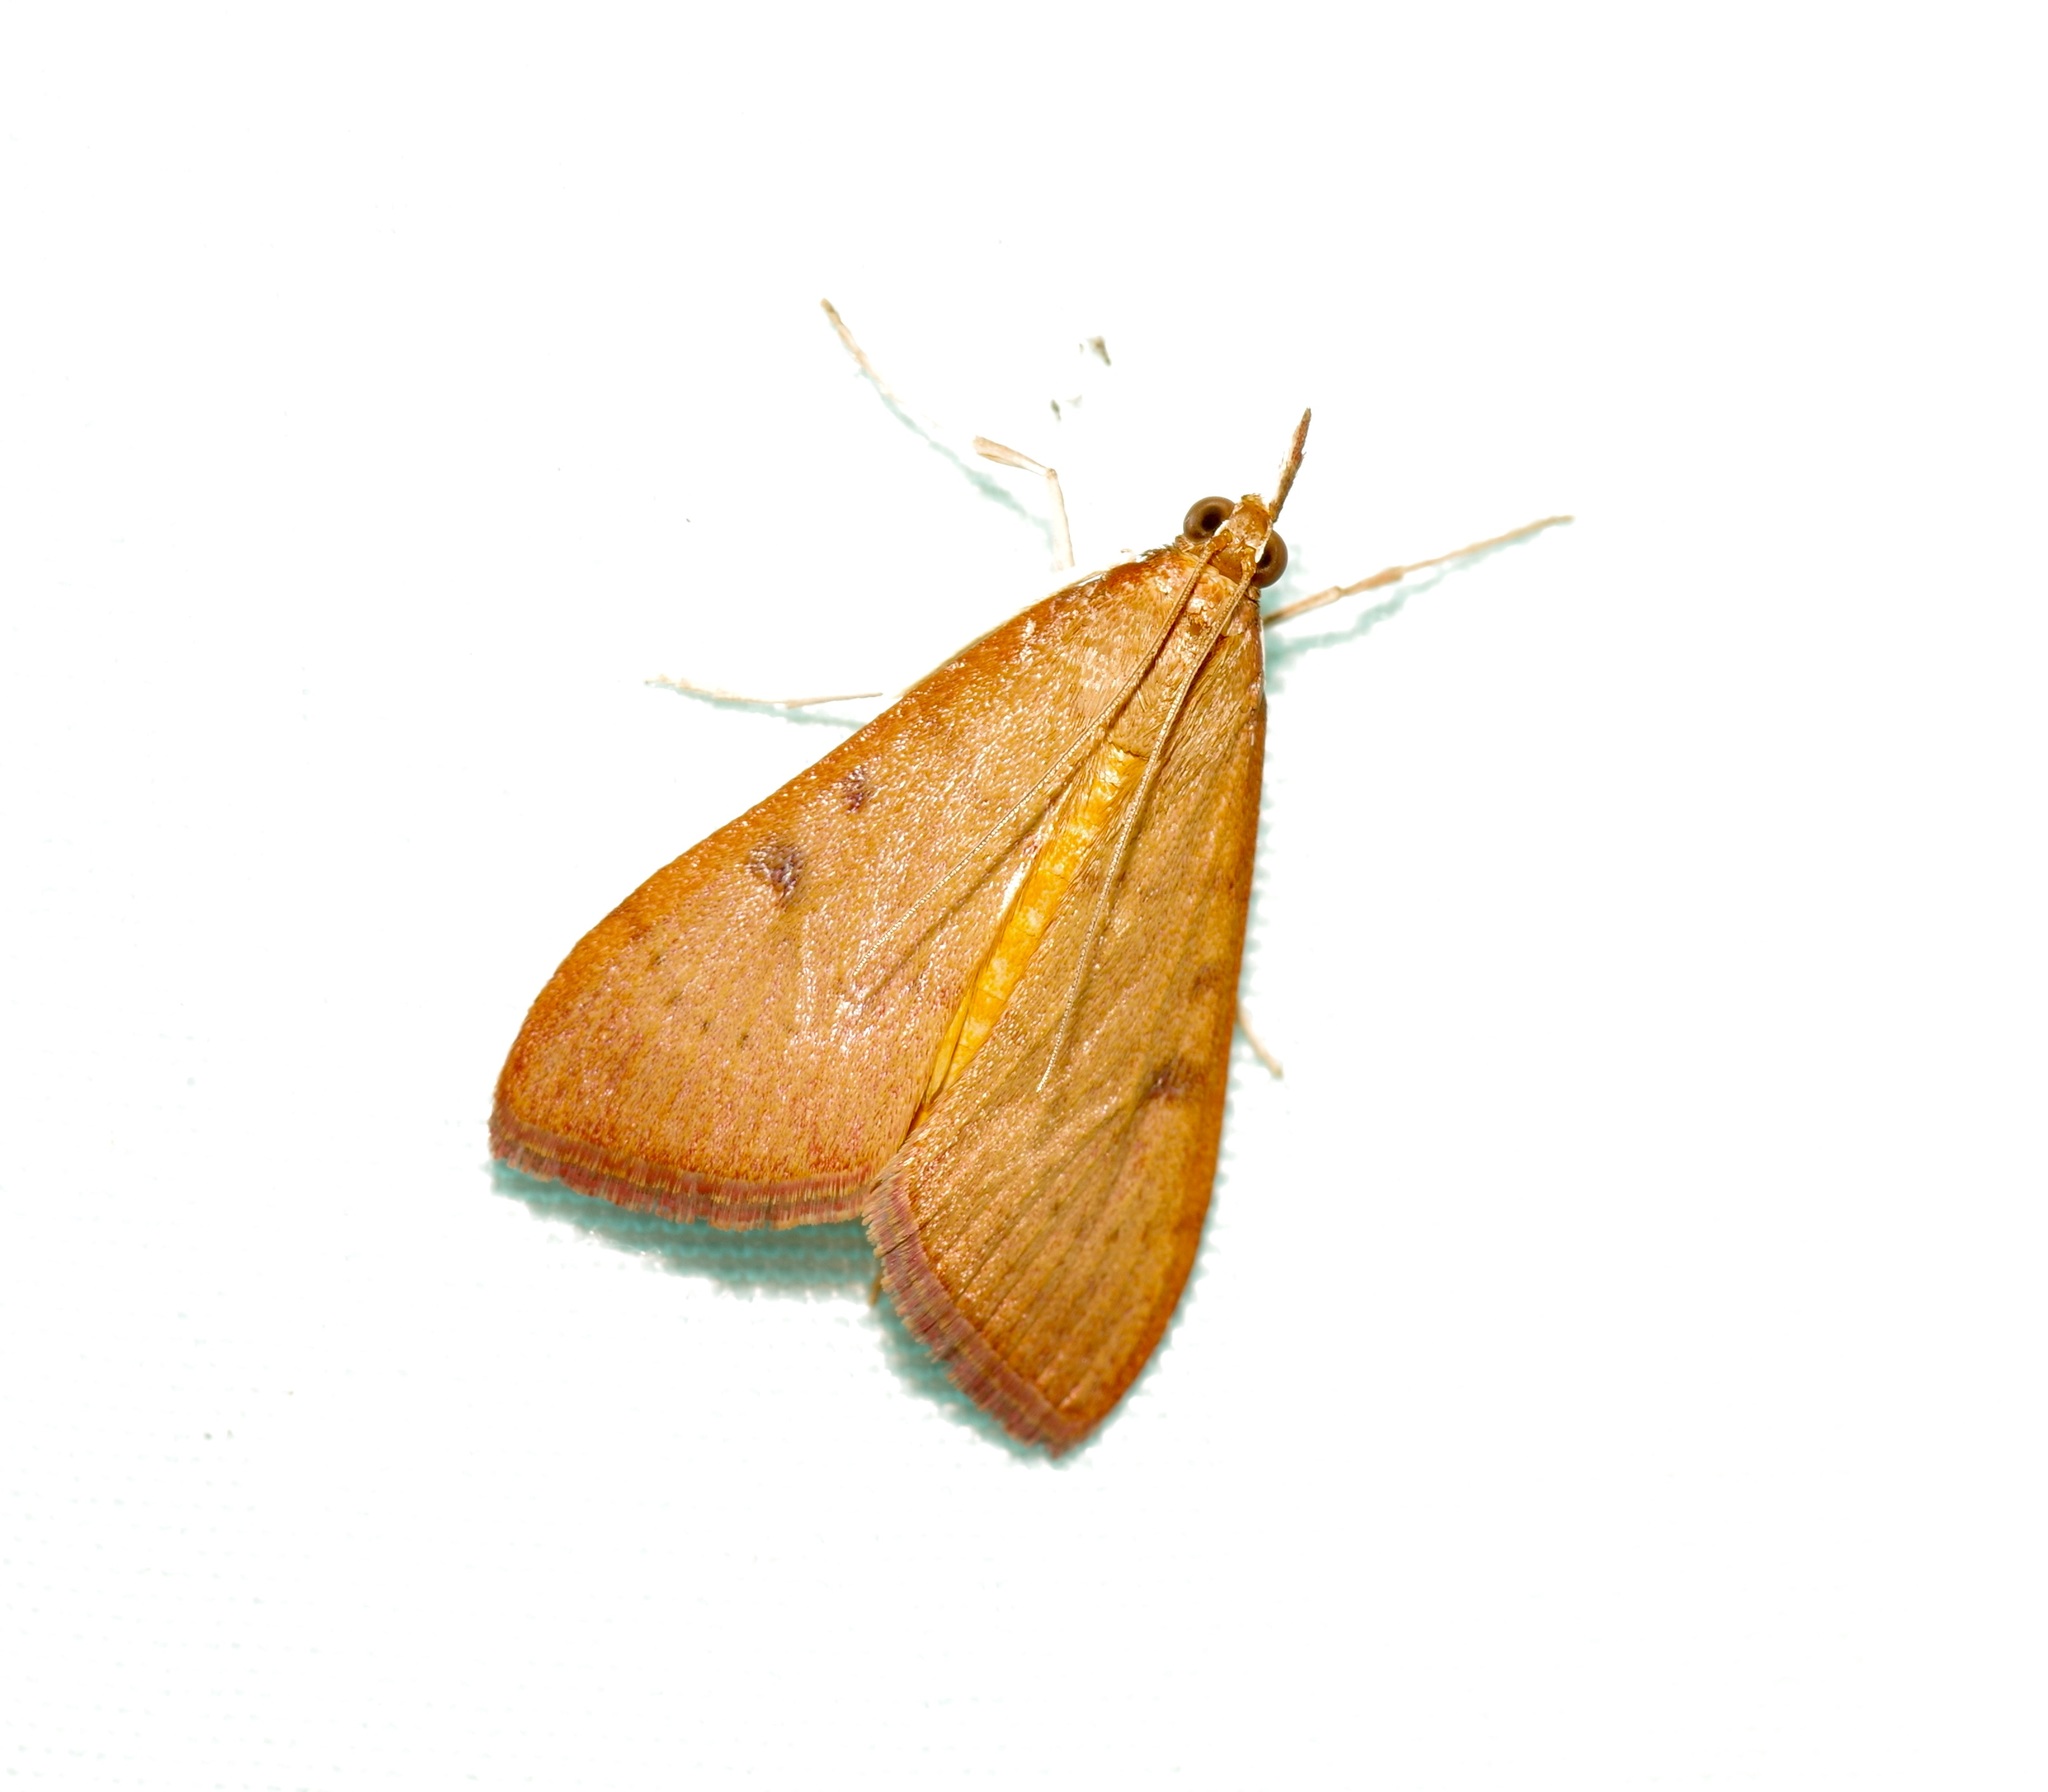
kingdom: Animalia
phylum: Arthropoda
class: Insecta
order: Lepidoptera
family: Crambidae
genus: Uresiphita
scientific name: Uresiphita reversalis
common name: Genista broom moth
